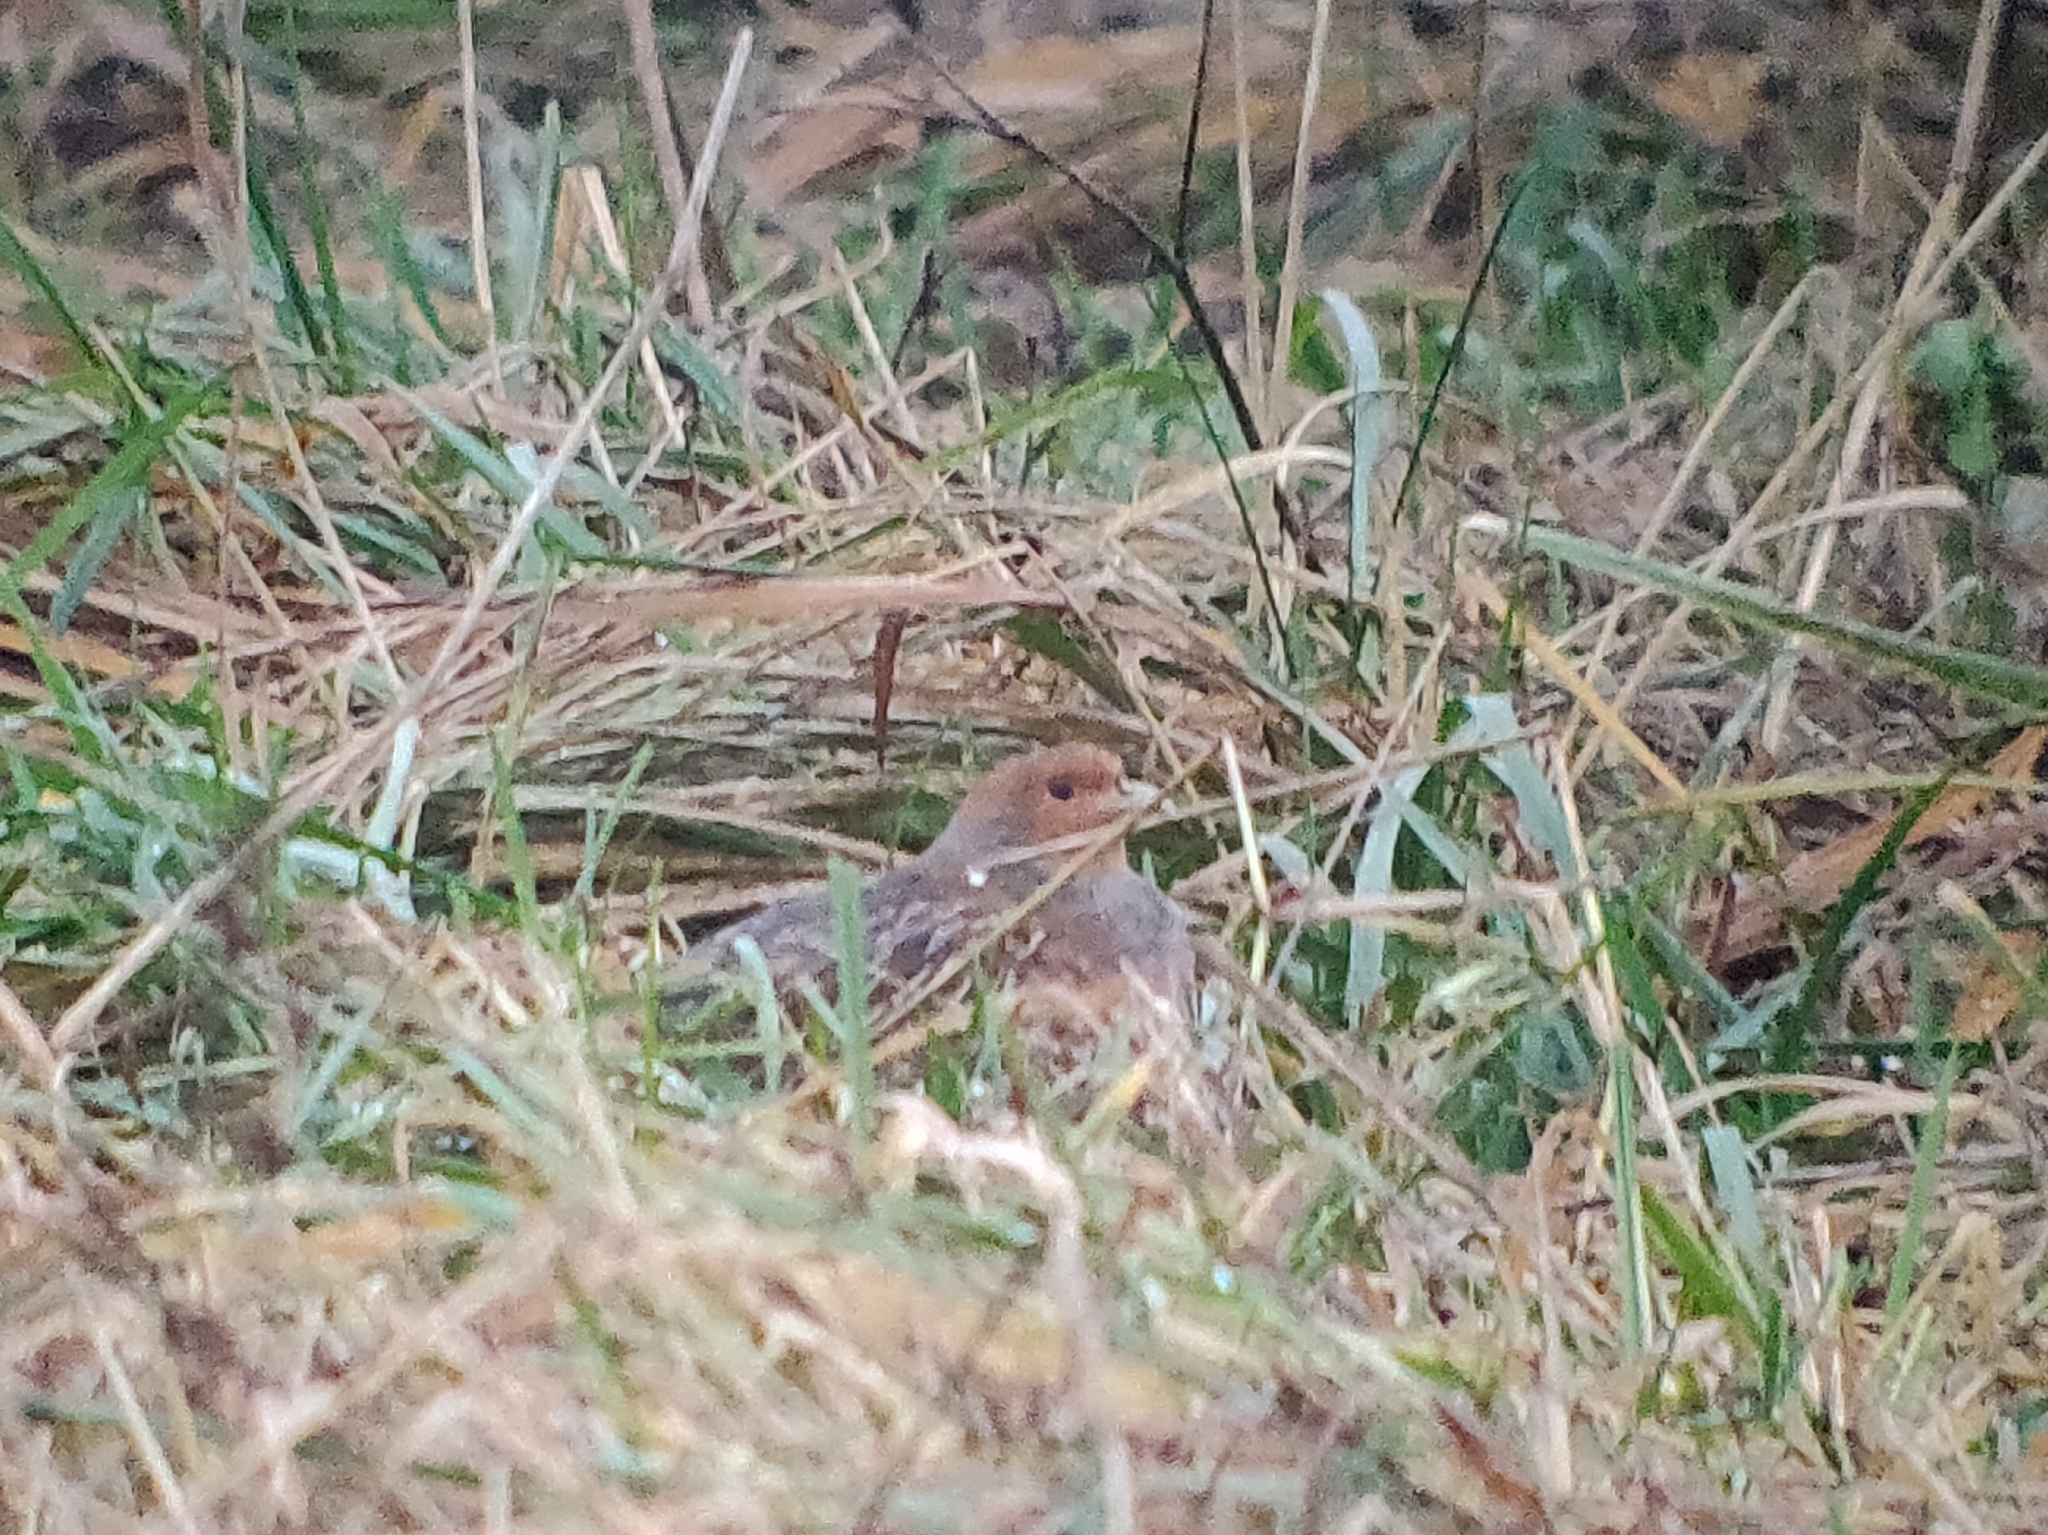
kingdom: Animalia
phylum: Chordata
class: Aves
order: Galliformes
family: Phasianidae
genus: Perdix
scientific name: Perdix perdix
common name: Grey partridge
